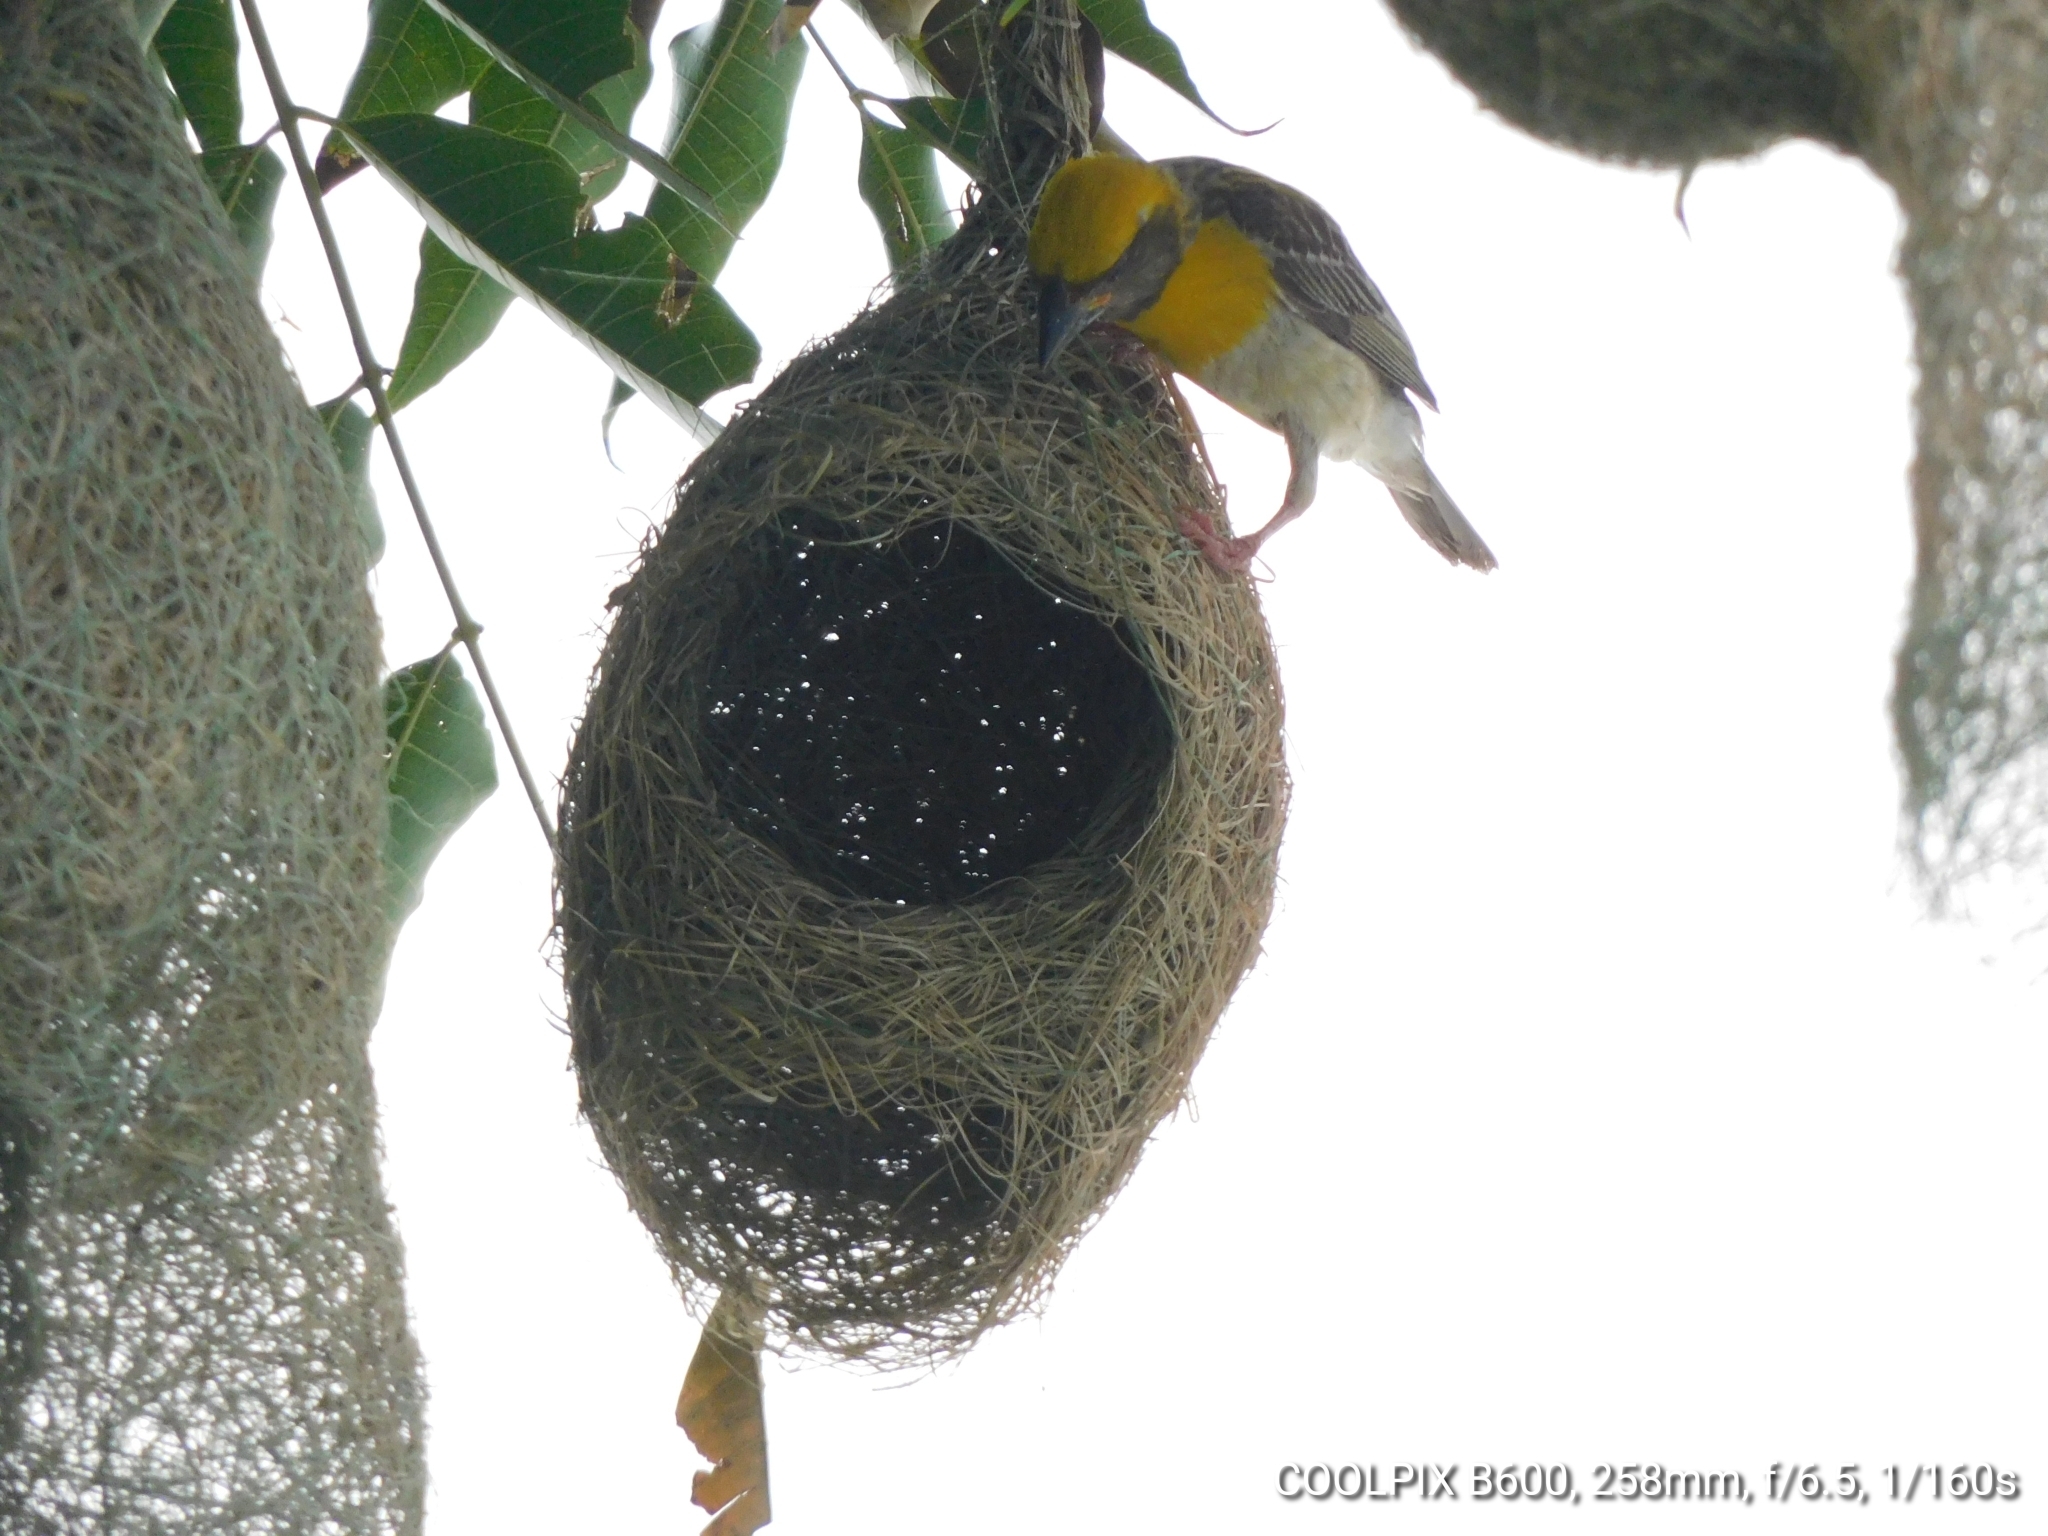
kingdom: Animalia
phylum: Chordata
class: Aves
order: Passeriformes
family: Ploceidae
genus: Ploceus
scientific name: Ploceus philippinus
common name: Baya weaver
